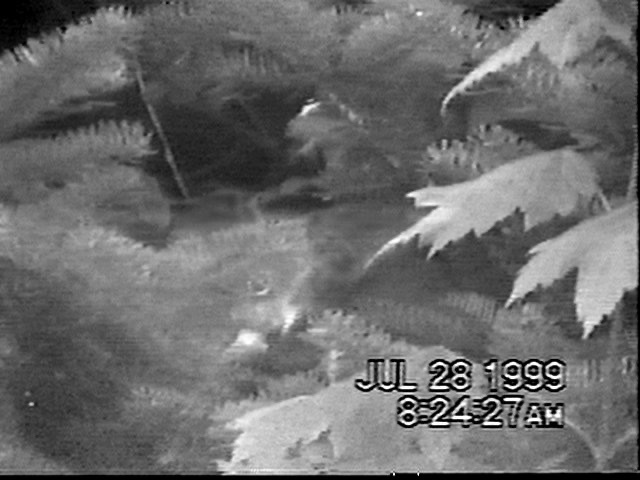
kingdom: Animalia
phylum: Chordata
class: Mammalia
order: Rodentia
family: Sciuridae
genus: Tamiasciurus
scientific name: Tamiasciurus hudsonicus
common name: Red squirrel
